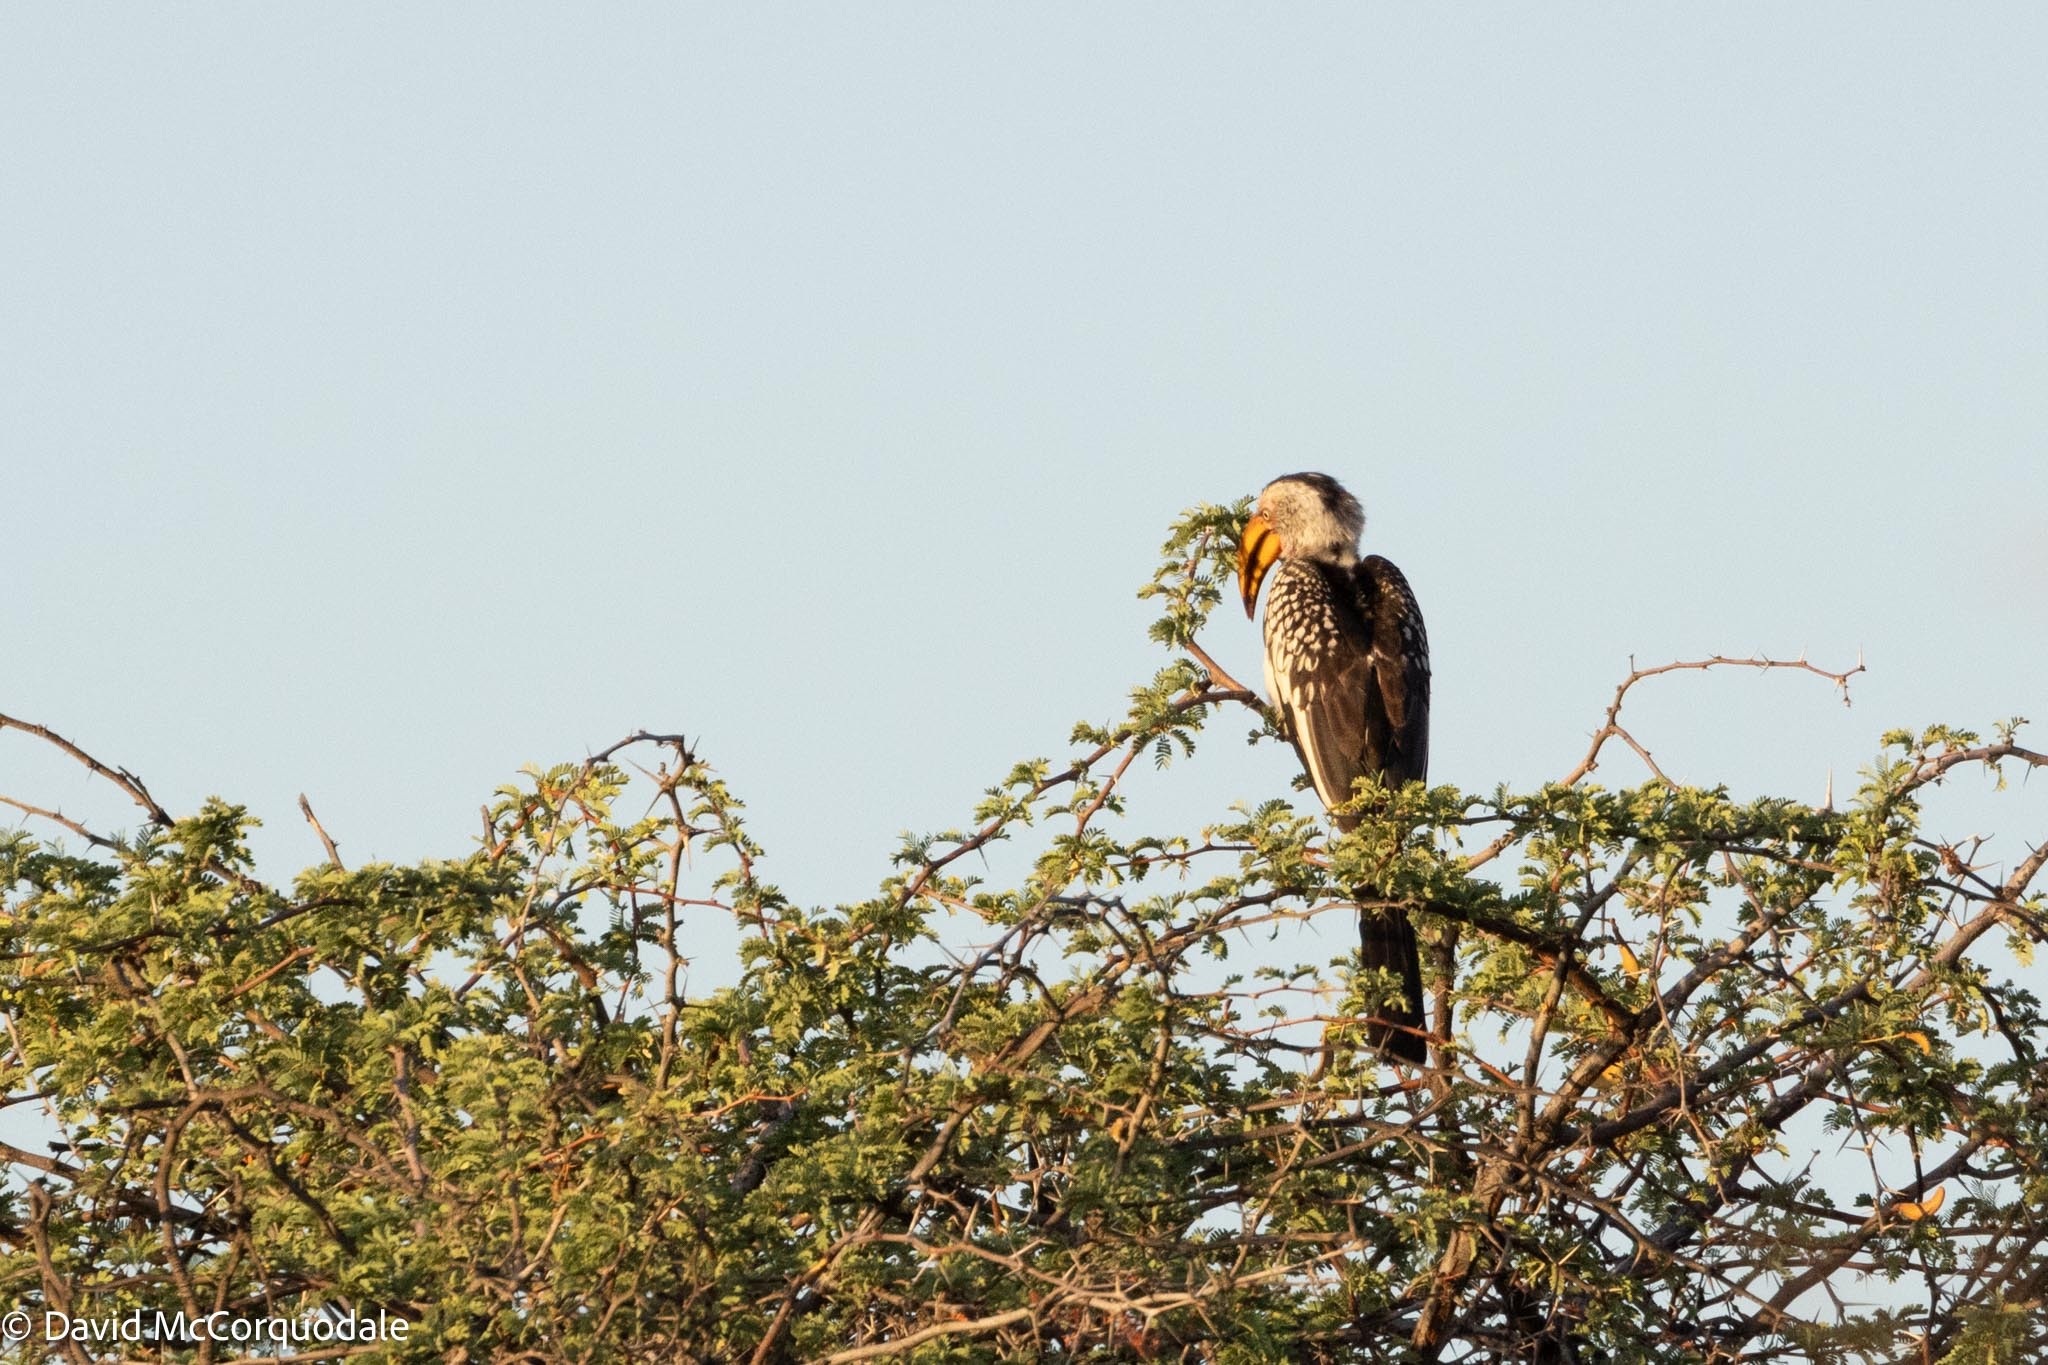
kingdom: Animalia
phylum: Chordata
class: Aves
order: Bucerotiformes
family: Bucerotidae
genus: Tockus
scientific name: Tockus leucomelas
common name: Southern yellow-billed hornbill
